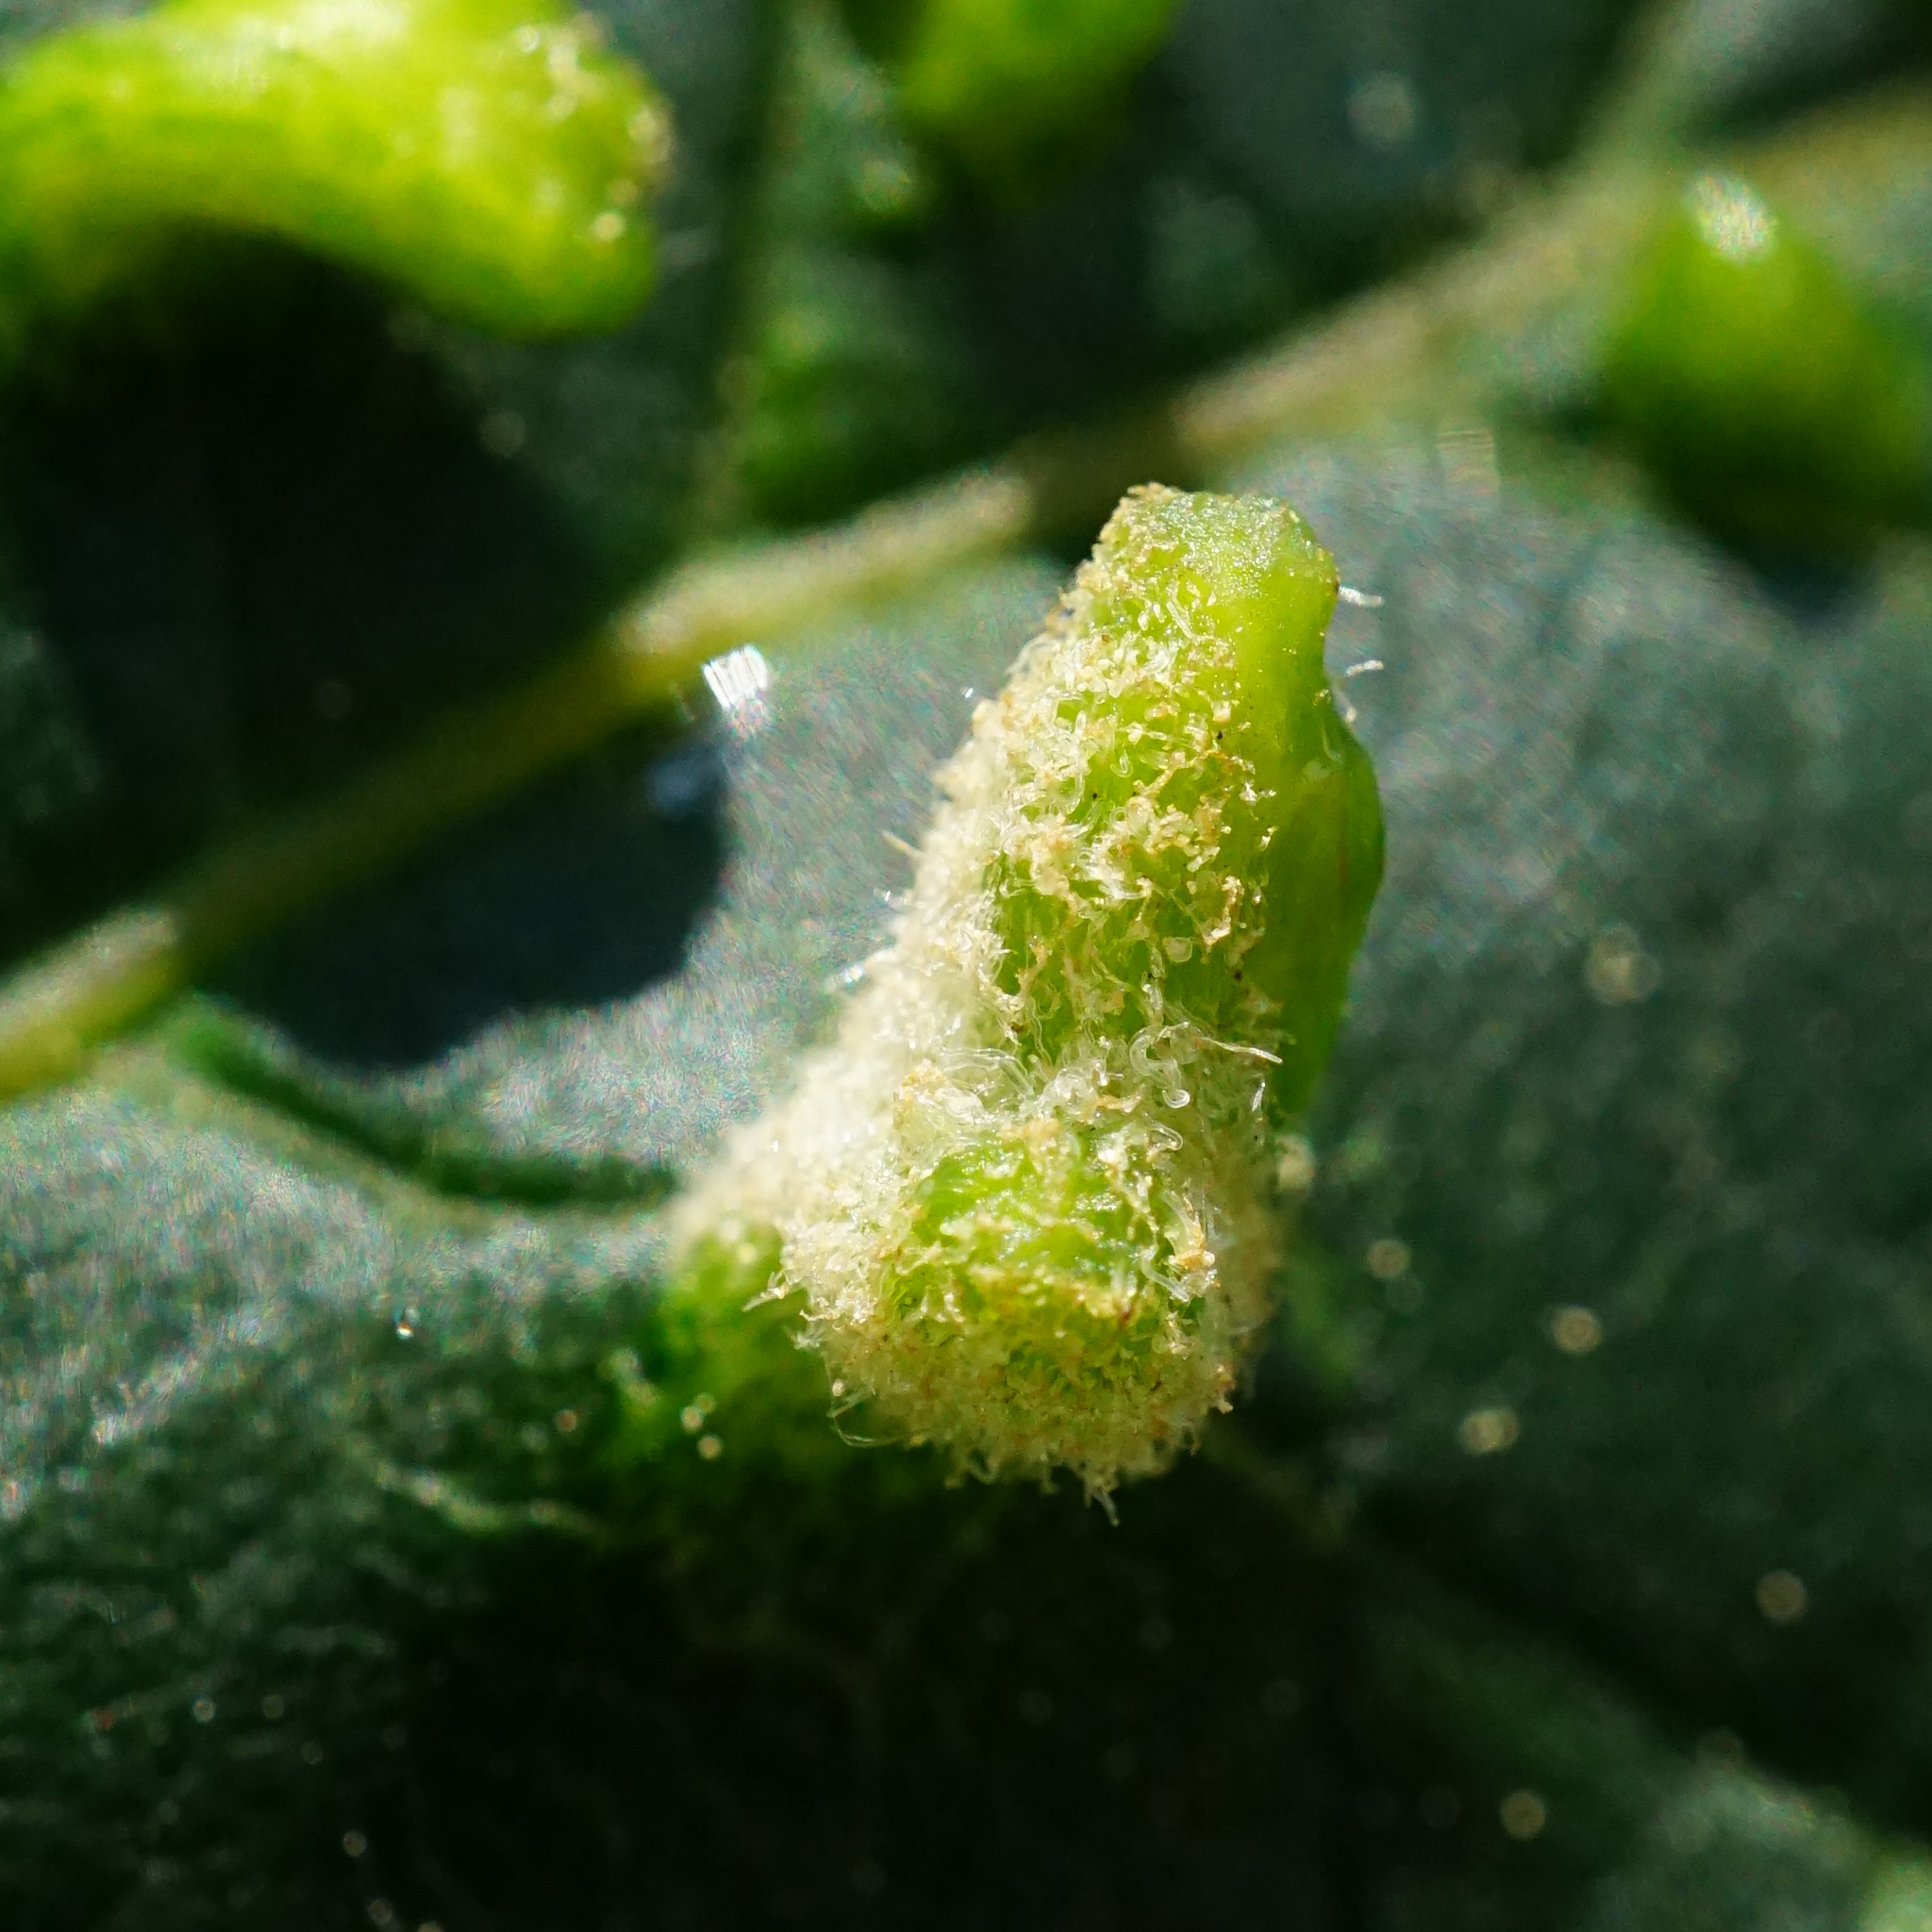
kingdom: Animalia
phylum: Arthropoda
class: Arachnida
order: Trombidiformes
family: Eriophyidae
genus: Aceria
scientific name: Aceria macrorhynchus
